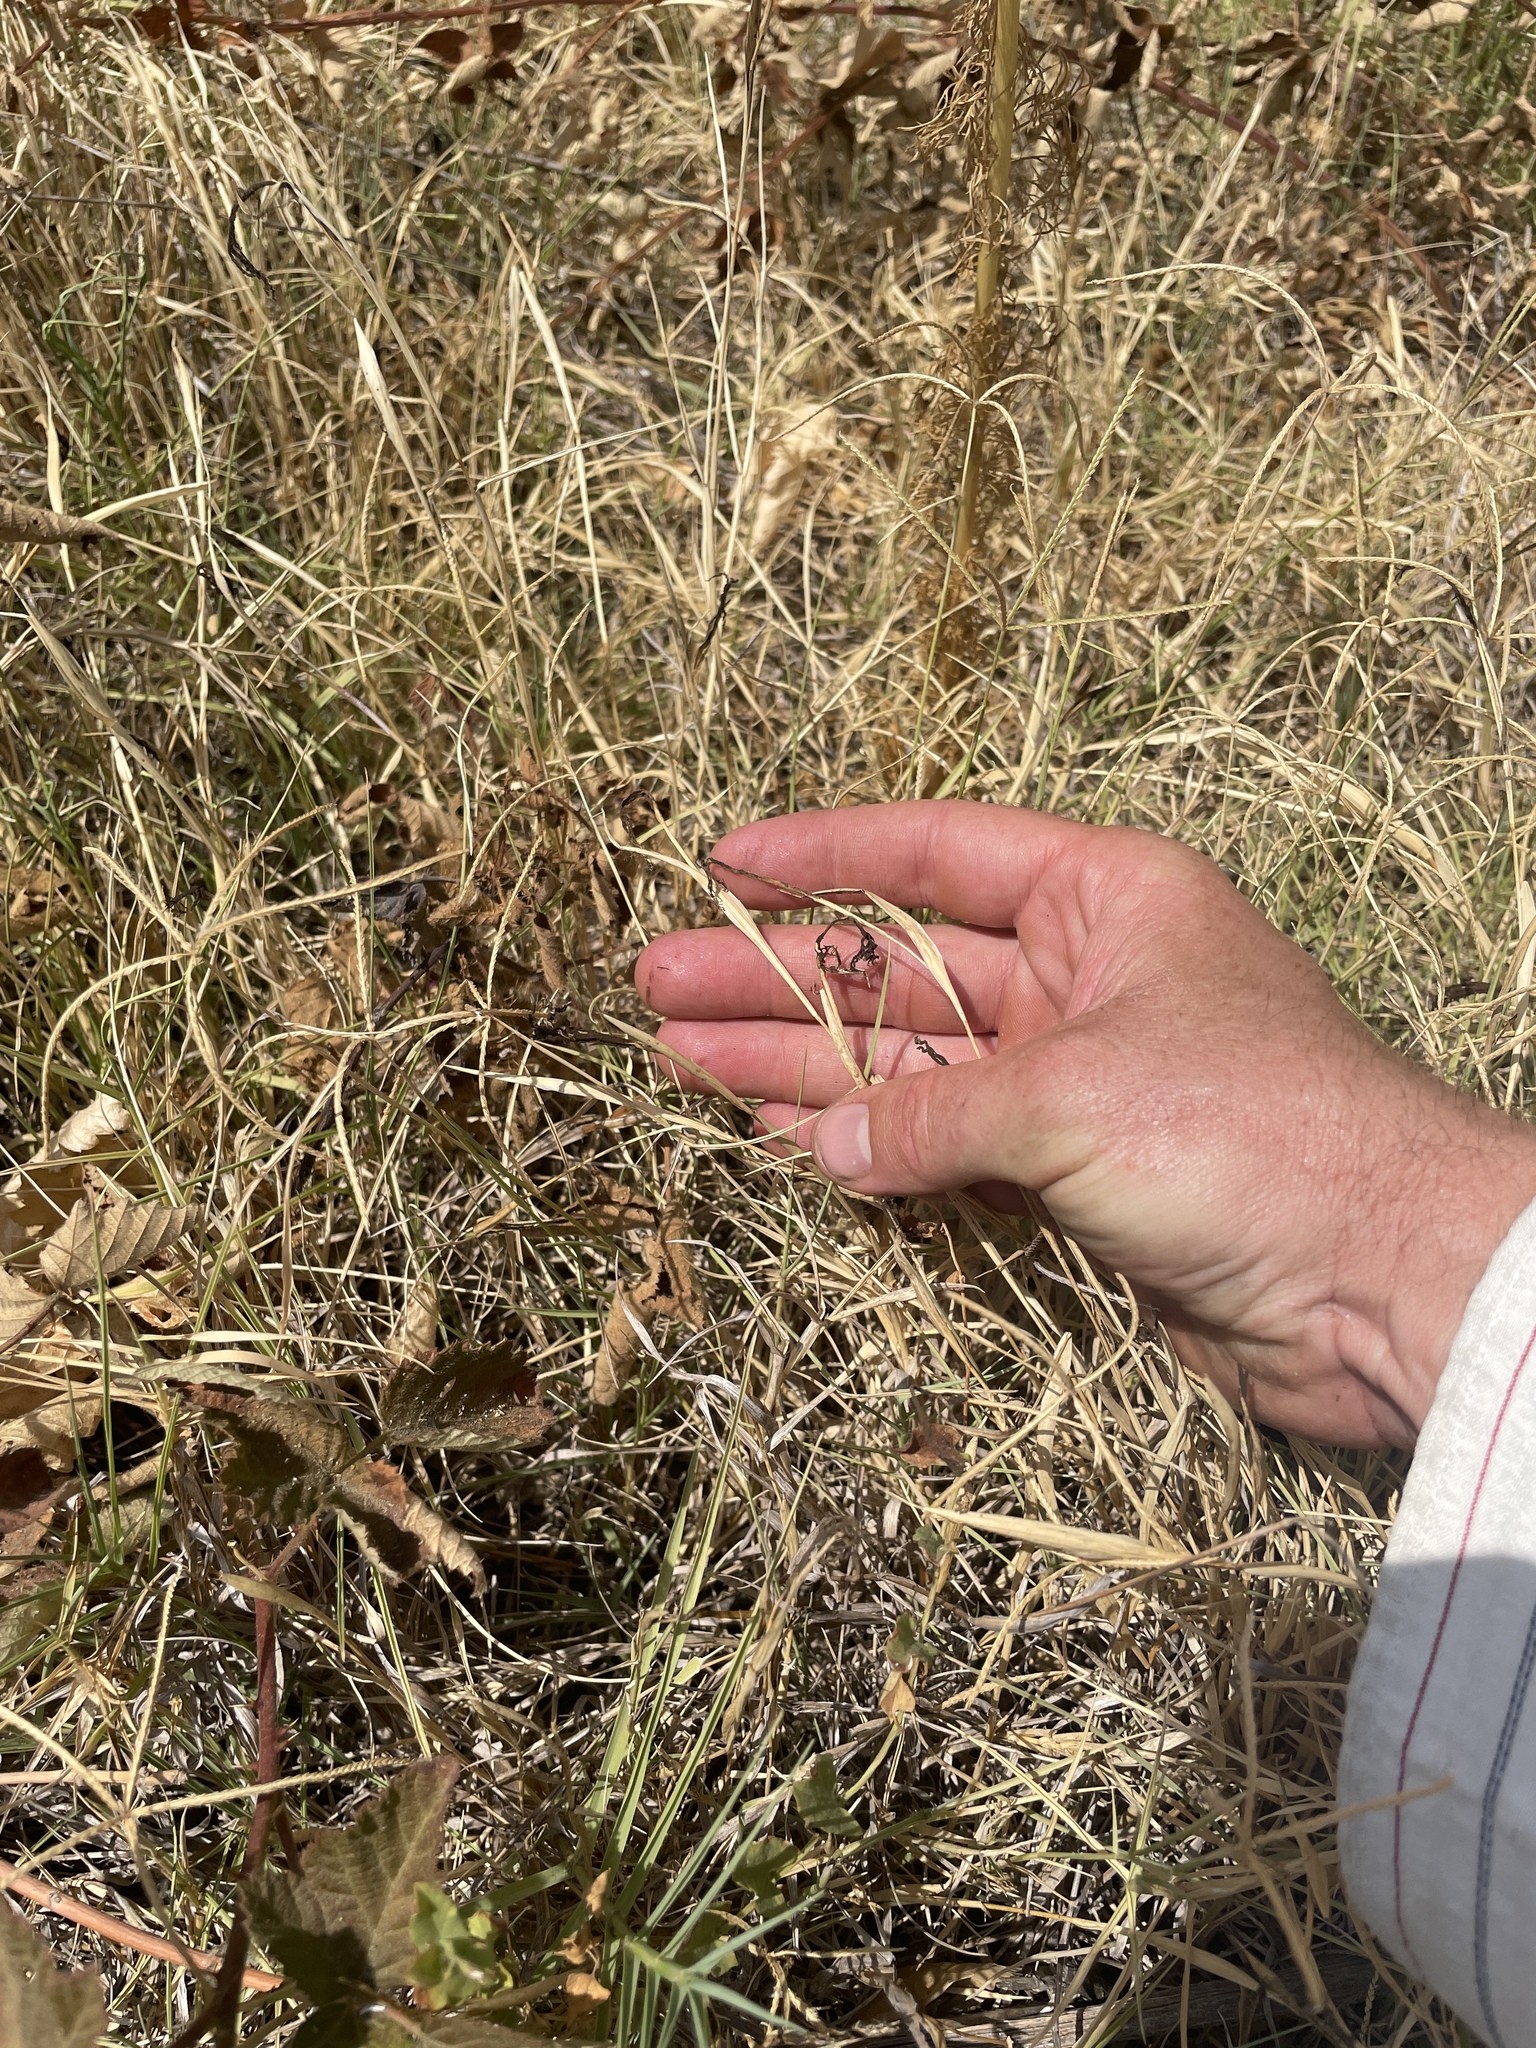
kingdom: Fungi
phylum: Basidiomycota
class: Ustilaginomycetes
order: Ustilaginales
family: Ustilaginaceae
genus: Ustilago
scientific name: Ustilago cynodontis
